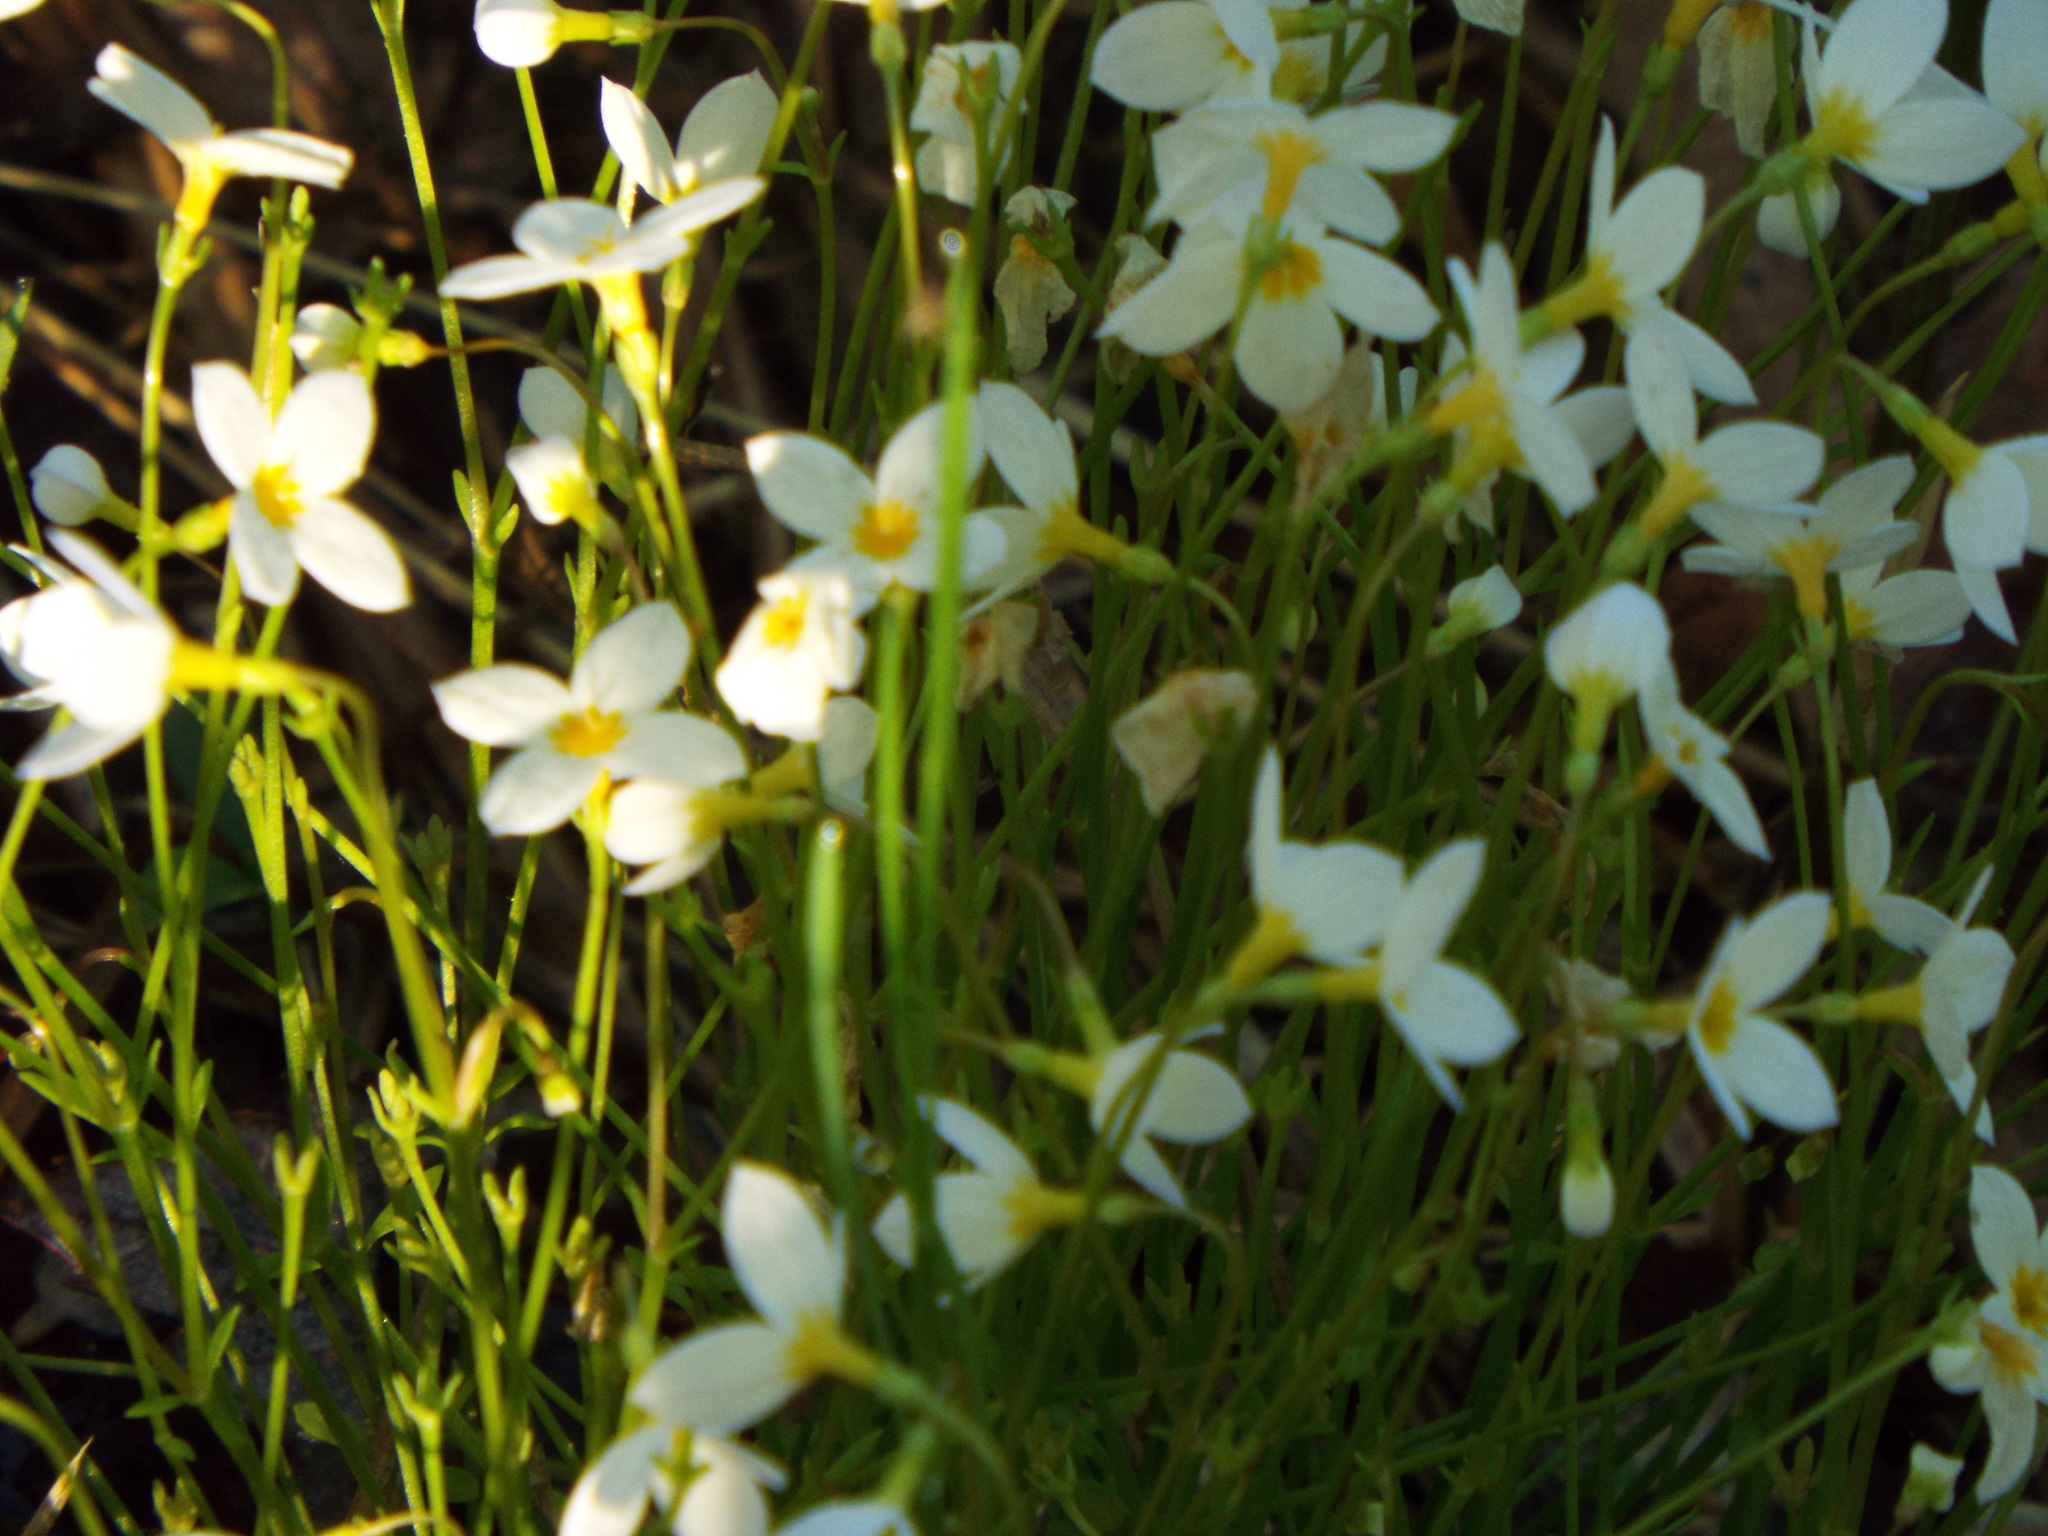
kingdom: Plantae
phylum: Tracheophyta
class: Magnoliopsida
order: Gentianales
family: Rubiaceae
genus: Houstonia
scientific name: Houstonia caerulea
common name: Bluets
